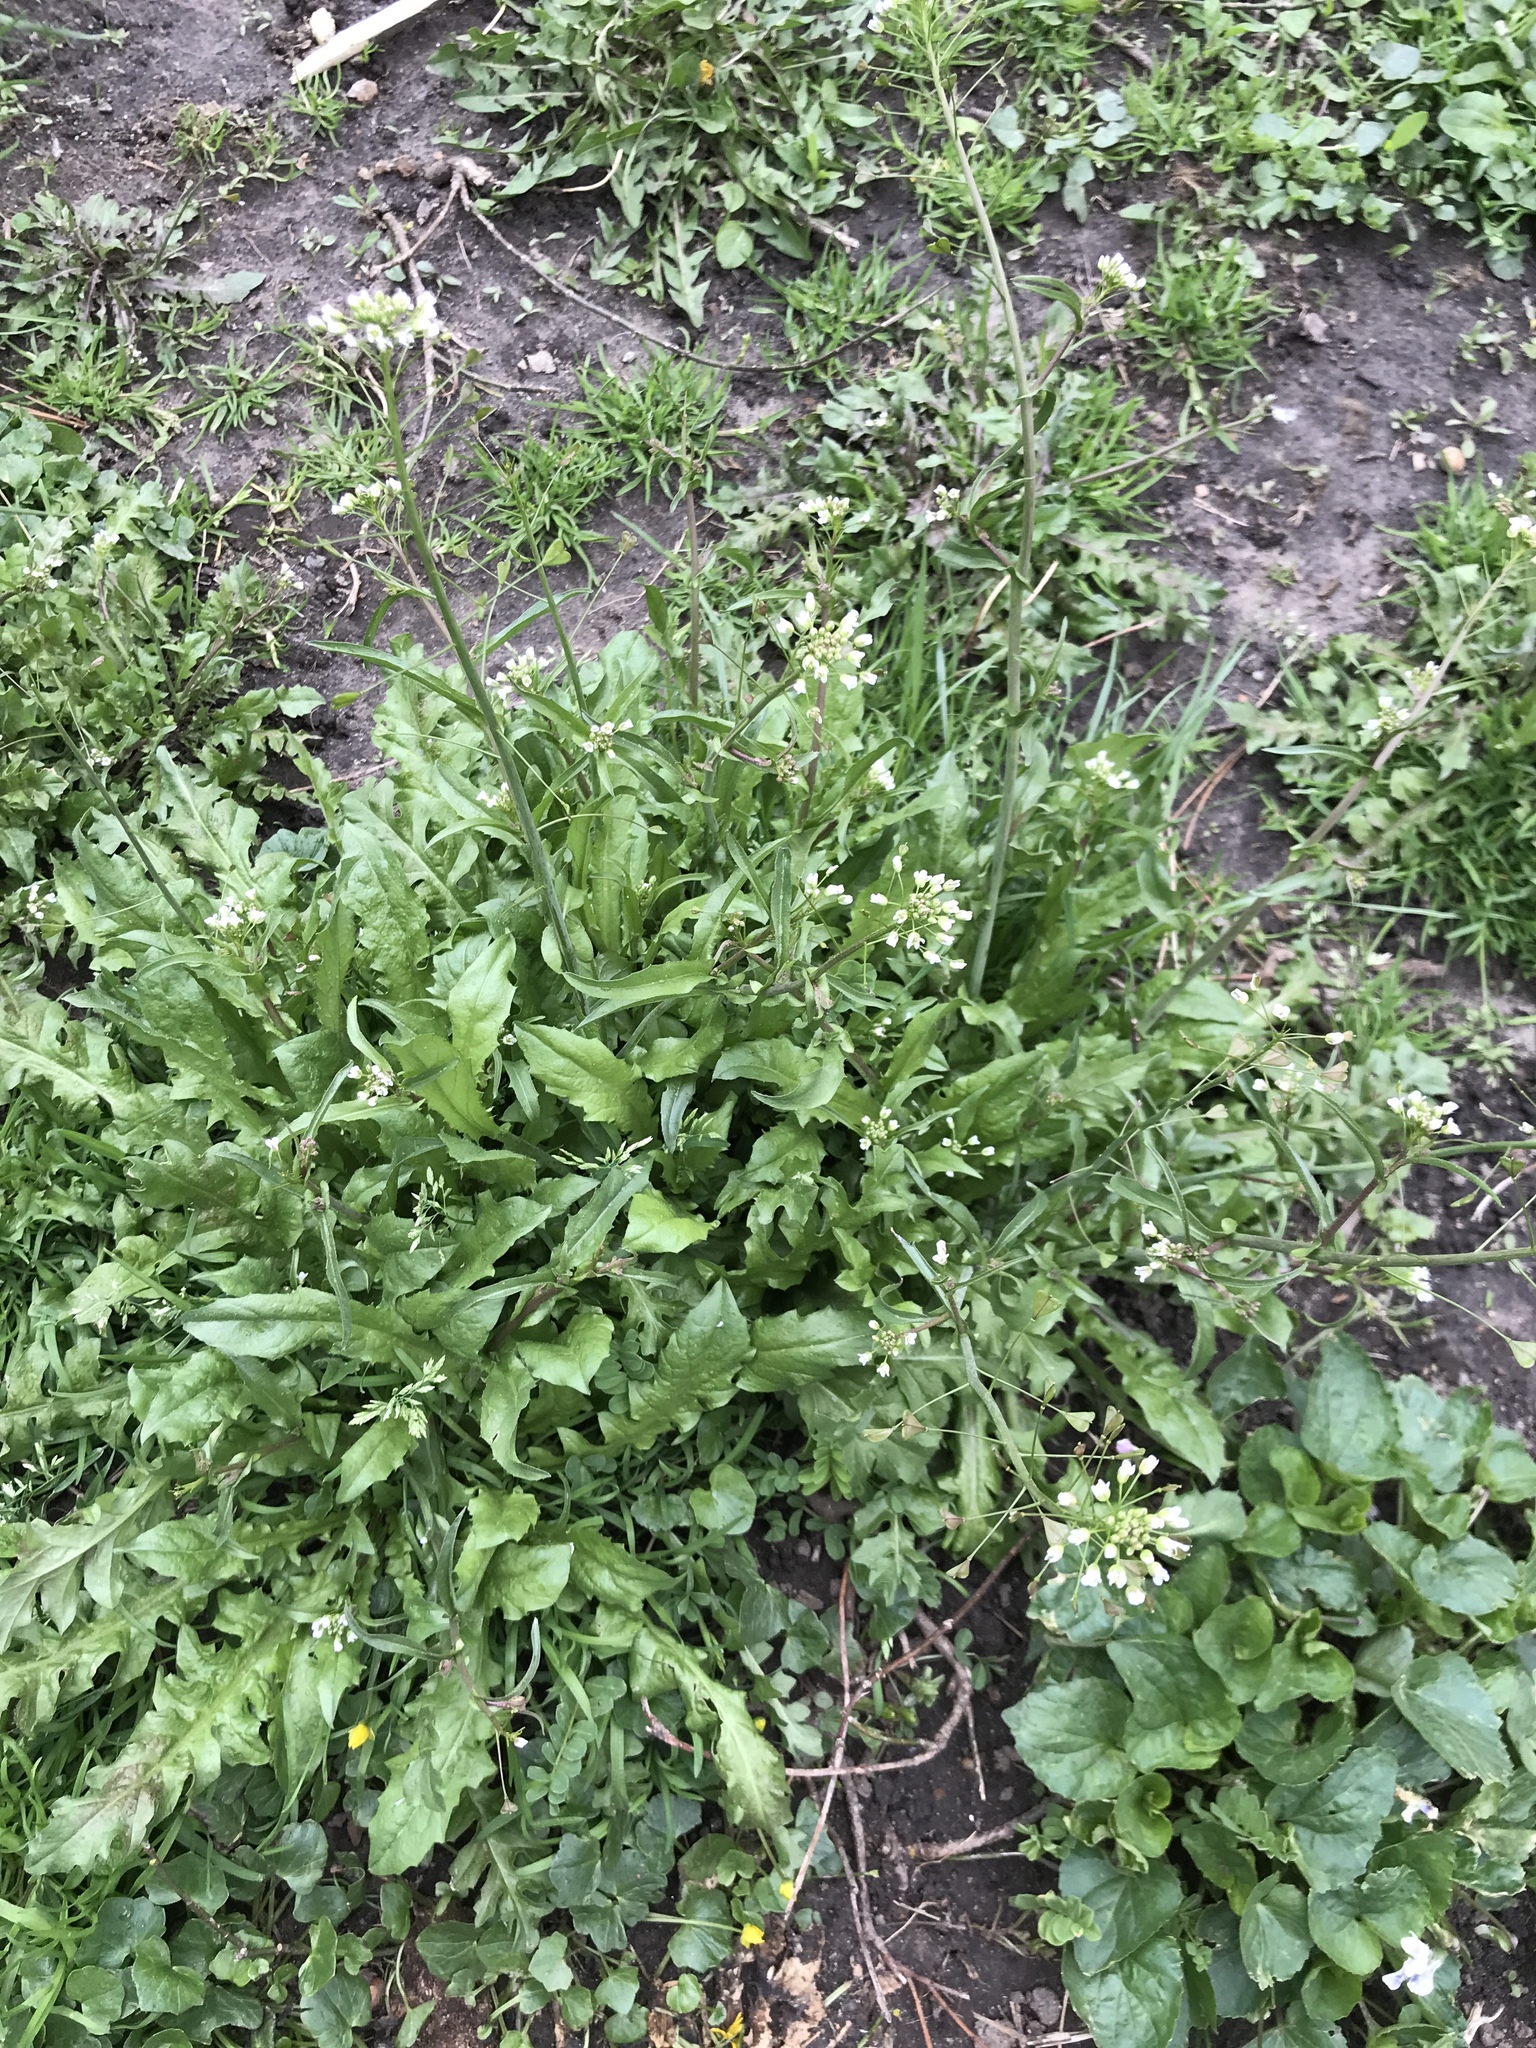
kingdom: Plantae
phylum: Tracheophyta
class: Magnoliopsida
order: Brassicales
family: Brassicaceae
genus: Capsella
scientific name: Capsella bursa-pastoris
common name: Shepherd's purse
